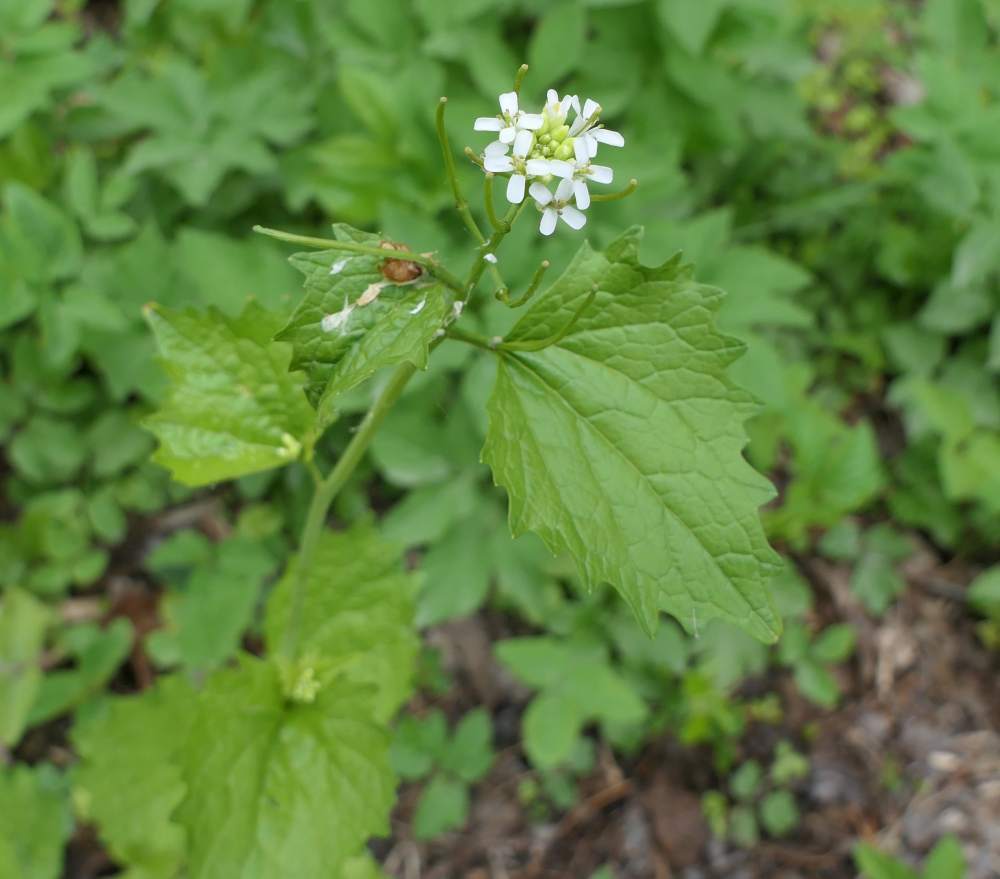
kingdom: Plantae
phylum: Tracheophyta
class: Magnoliopsida
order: Brassicales
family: Brassicaceae
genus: Alliaria
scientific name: Alliaria petiolata
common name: Garlic mustard
